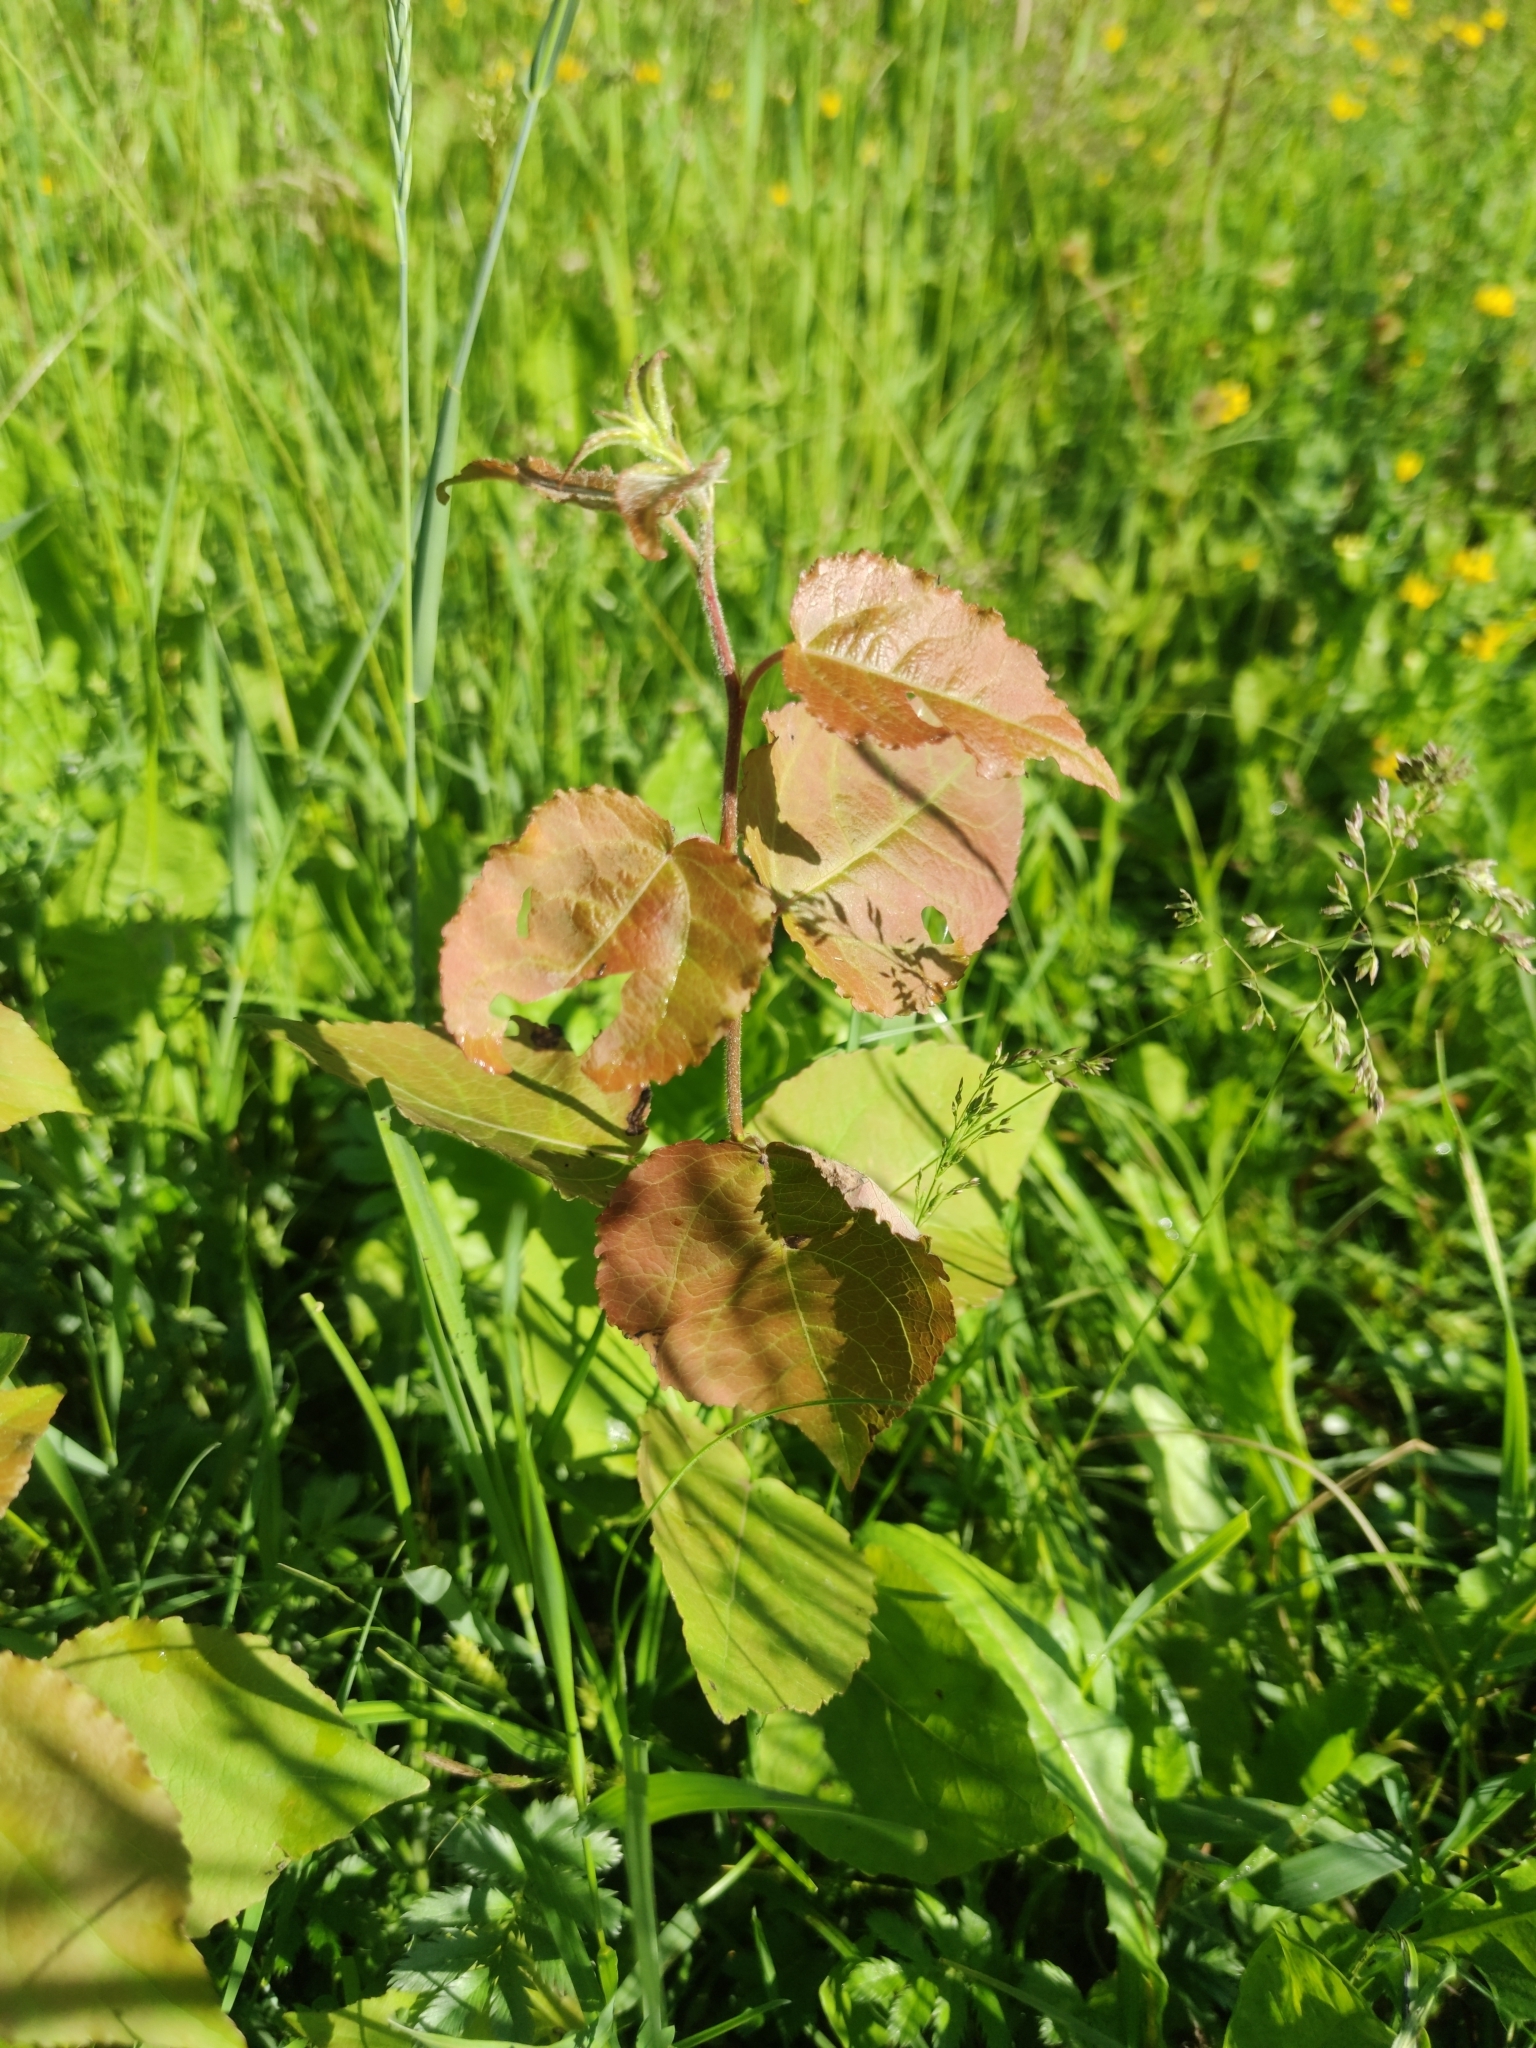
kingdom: Plantae
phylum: Tracheophyta
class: Magnoliopsida
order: Malpighiales
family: Salicaceae
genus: Populus
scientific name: Populus tremula
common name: European aspen
